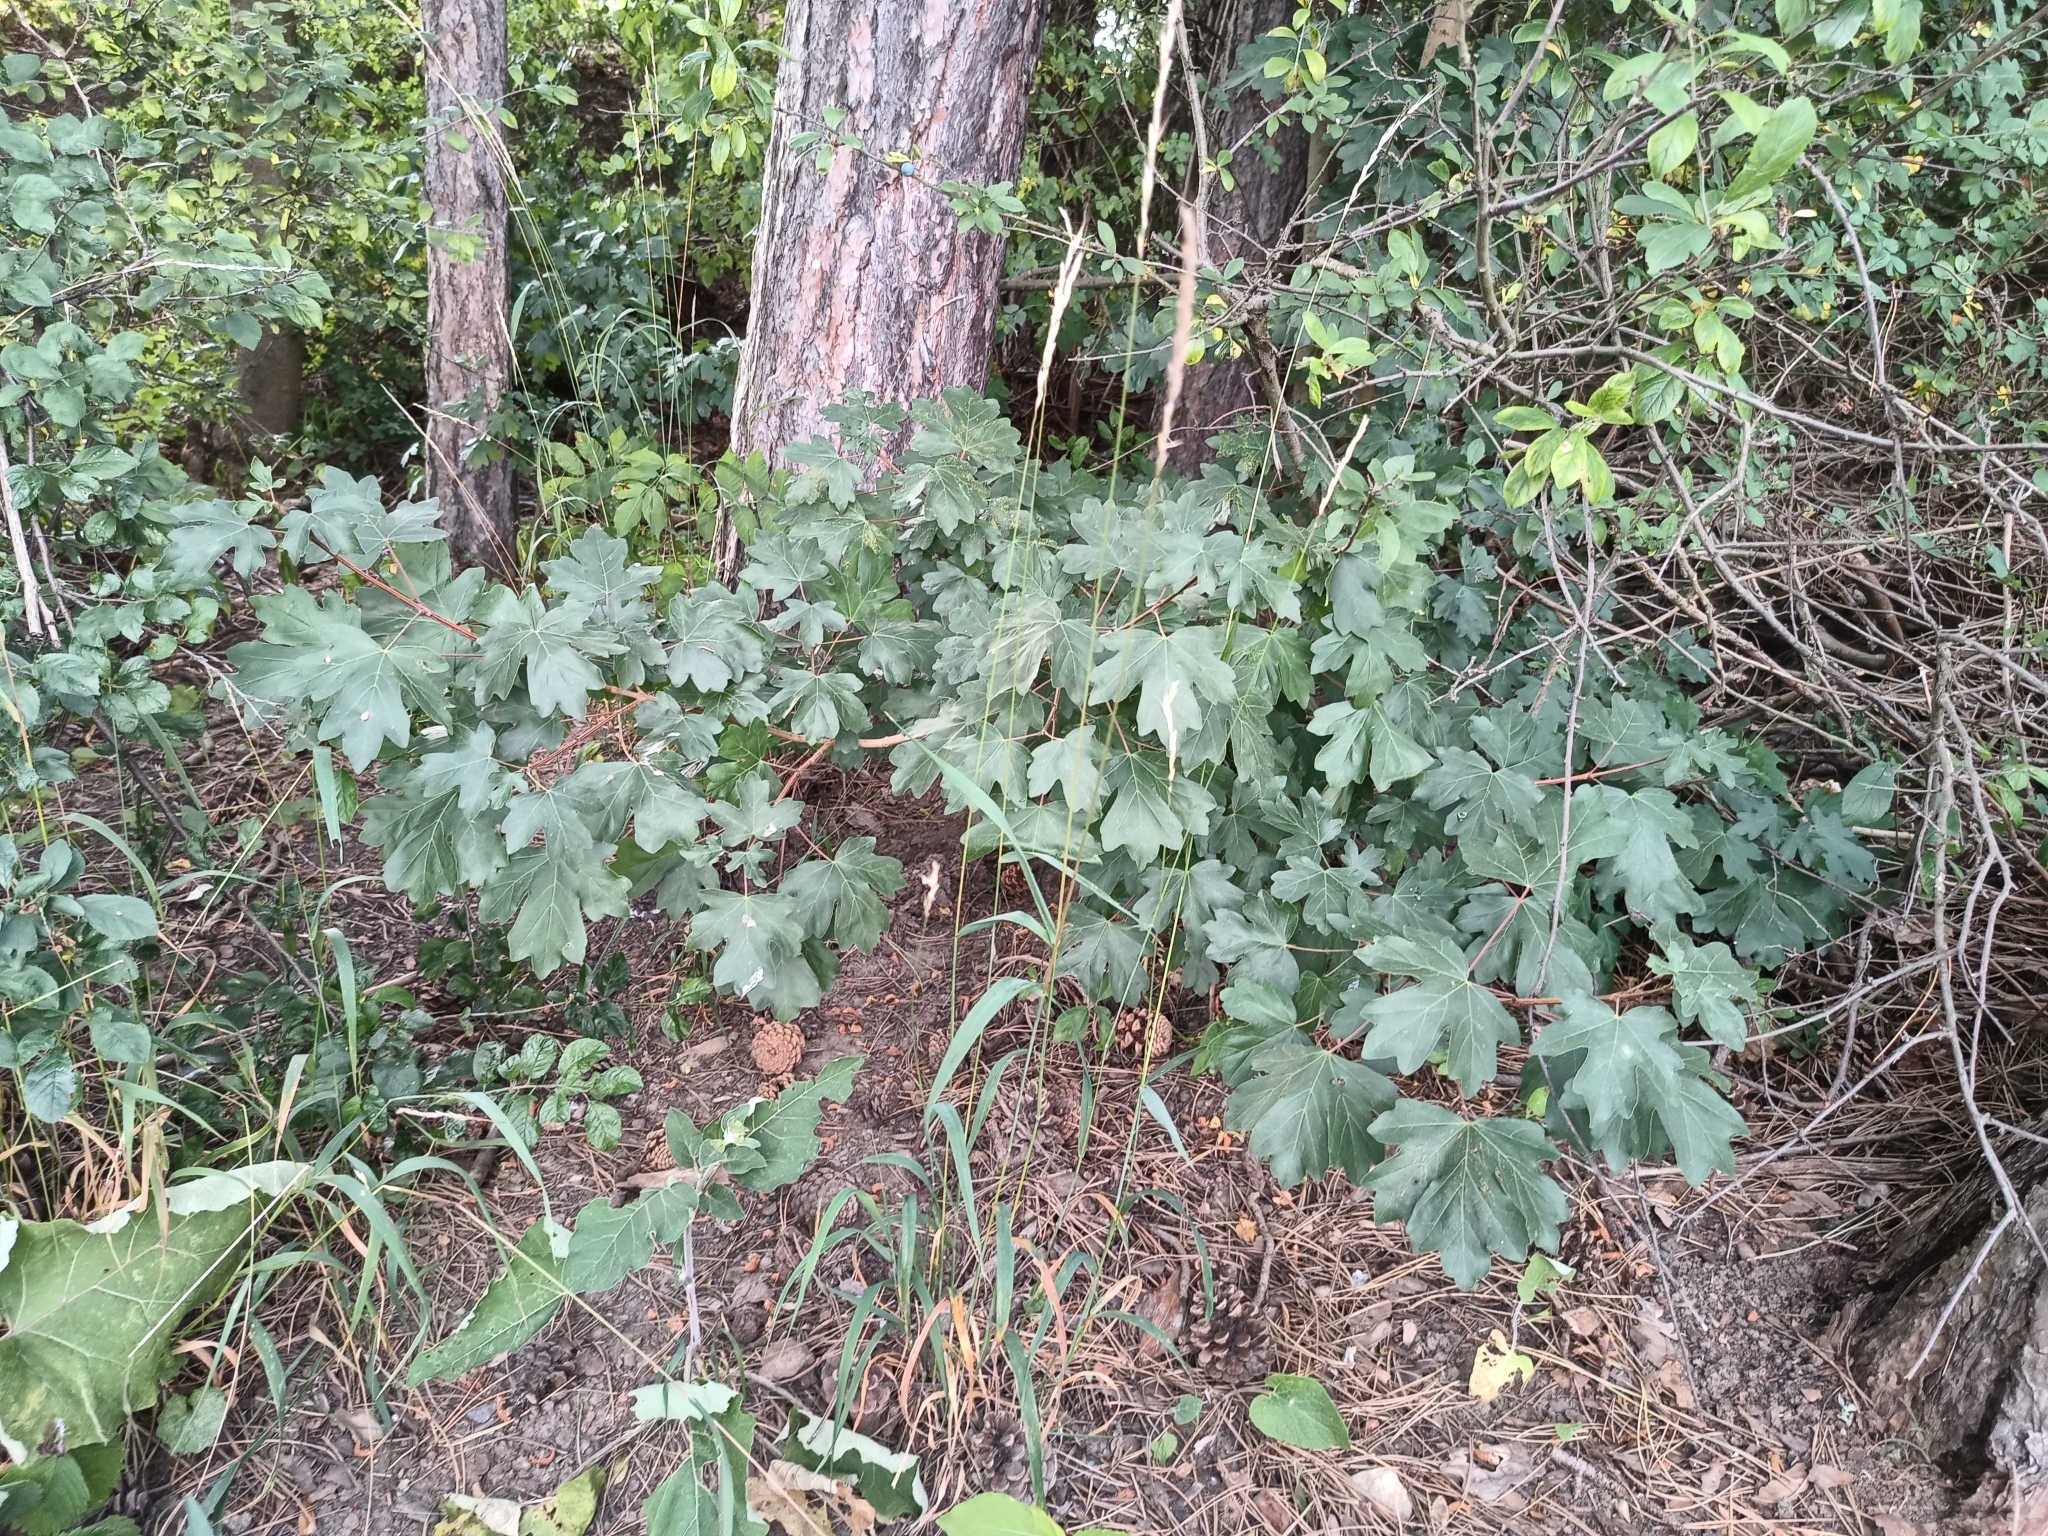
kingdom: Plantae
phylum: Tracheophyta
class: Magnoliopsida
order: Sapindales
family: Sapindaceae
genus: Acer
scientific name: Acer campestre
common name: Field maple
